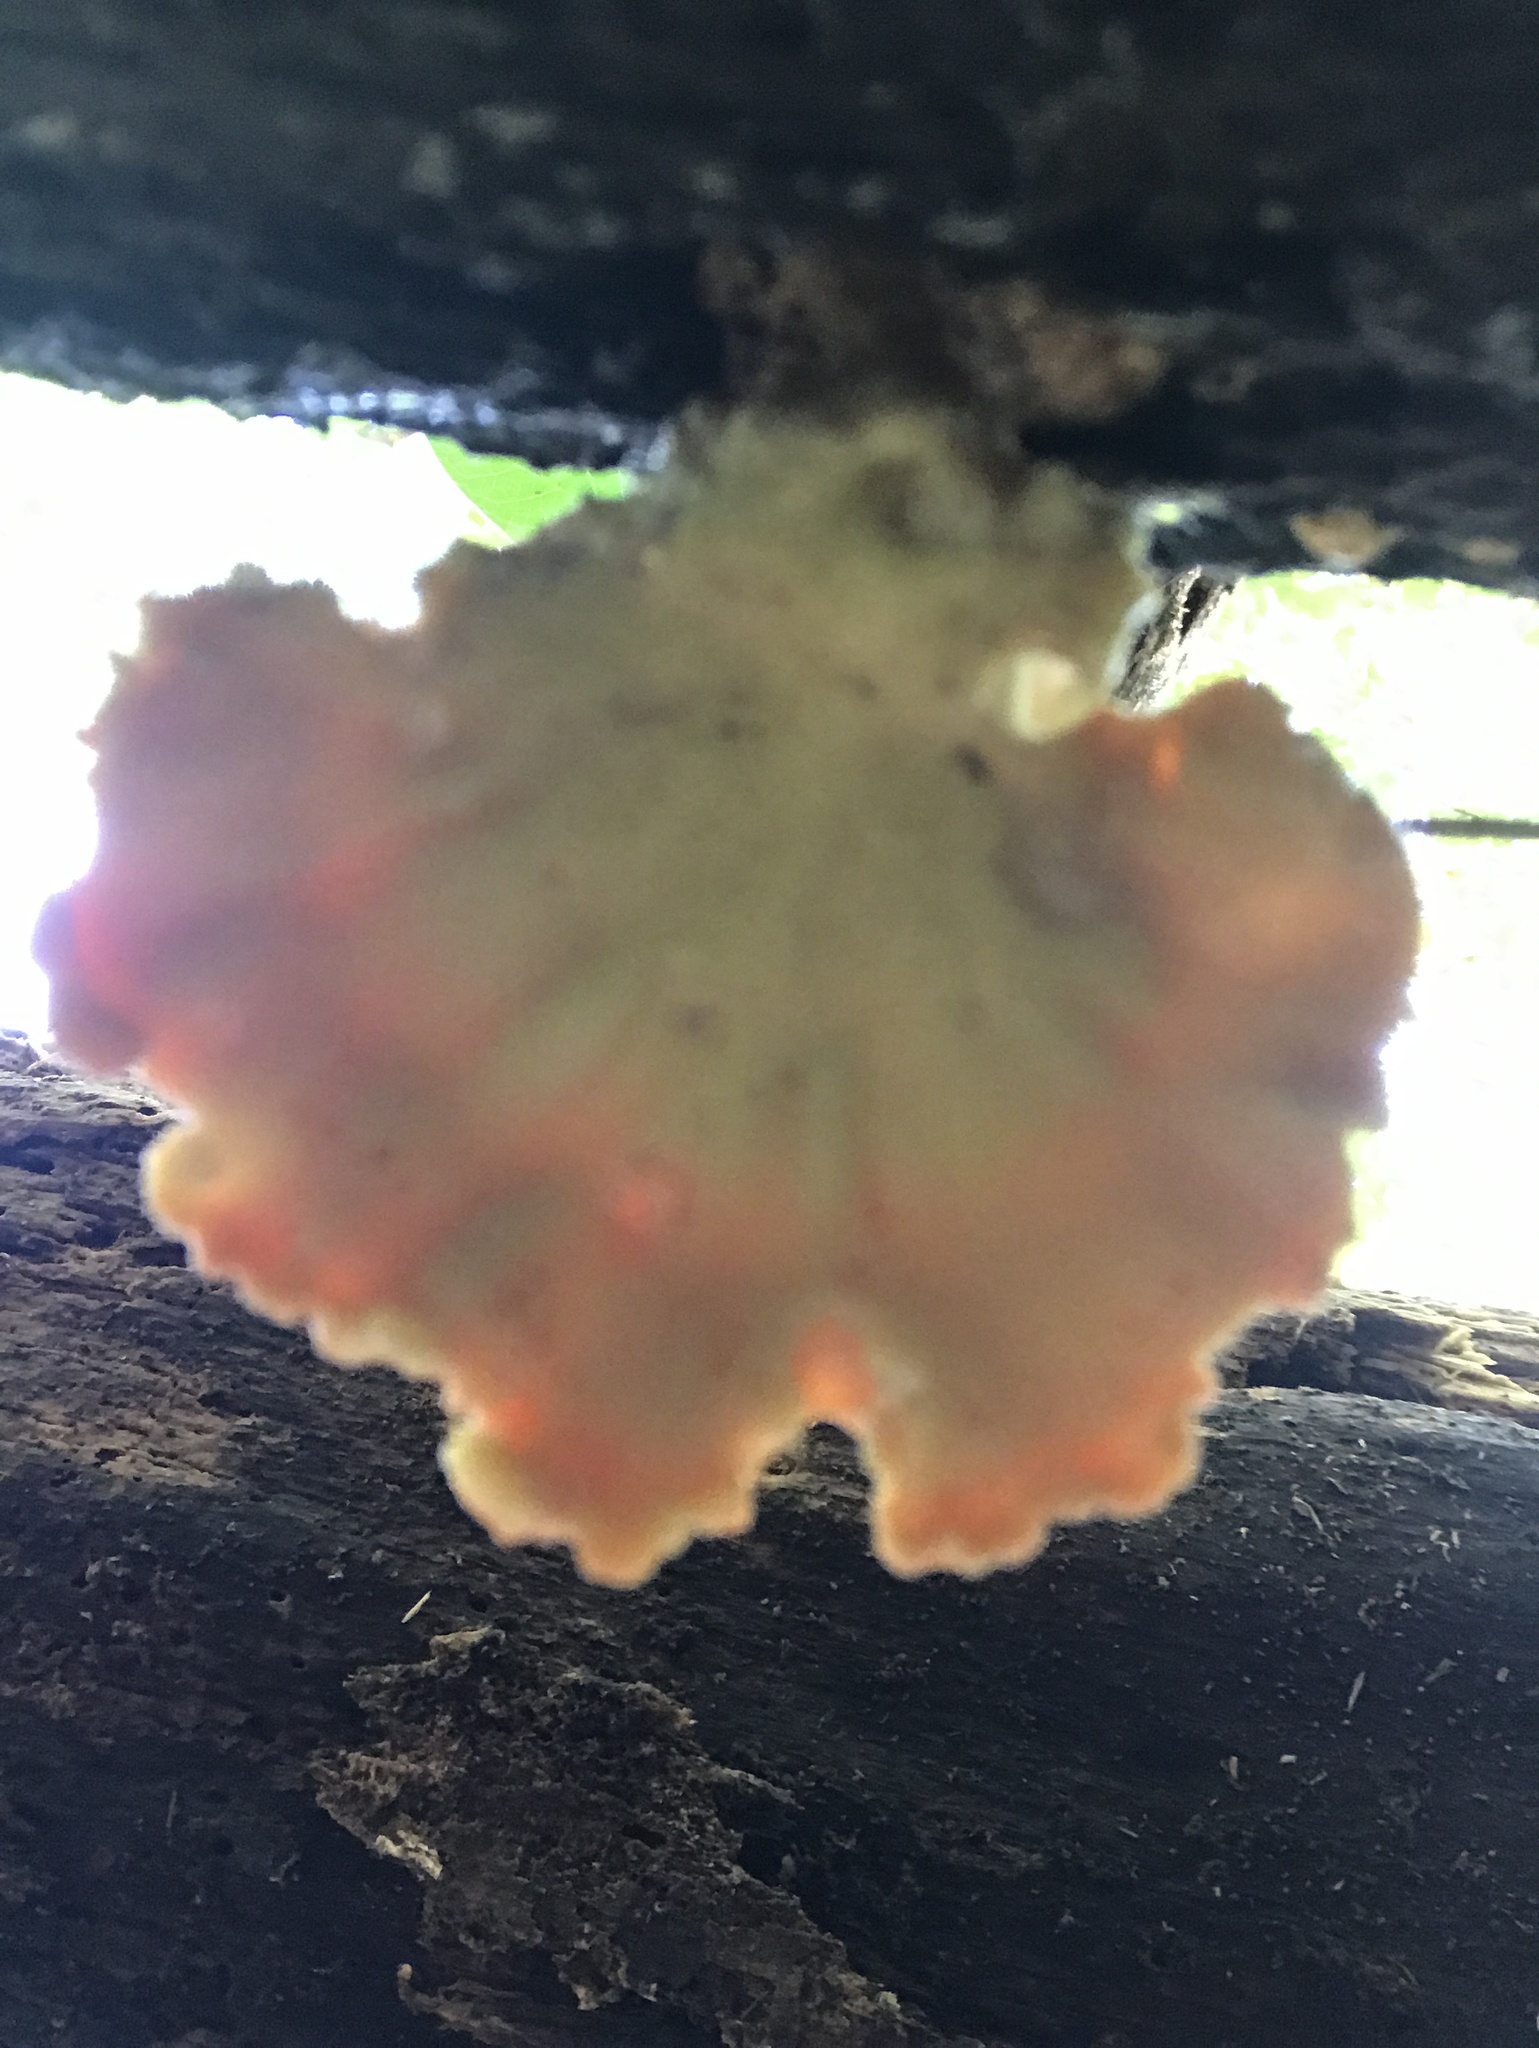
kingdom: Fungi
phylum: Basidiomycota
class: Agaricomycetes
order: Polyporales
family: Laetiporaceae
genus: Laetiporus
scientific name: Laetiporus sulphureus
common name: Chicken of the woods
